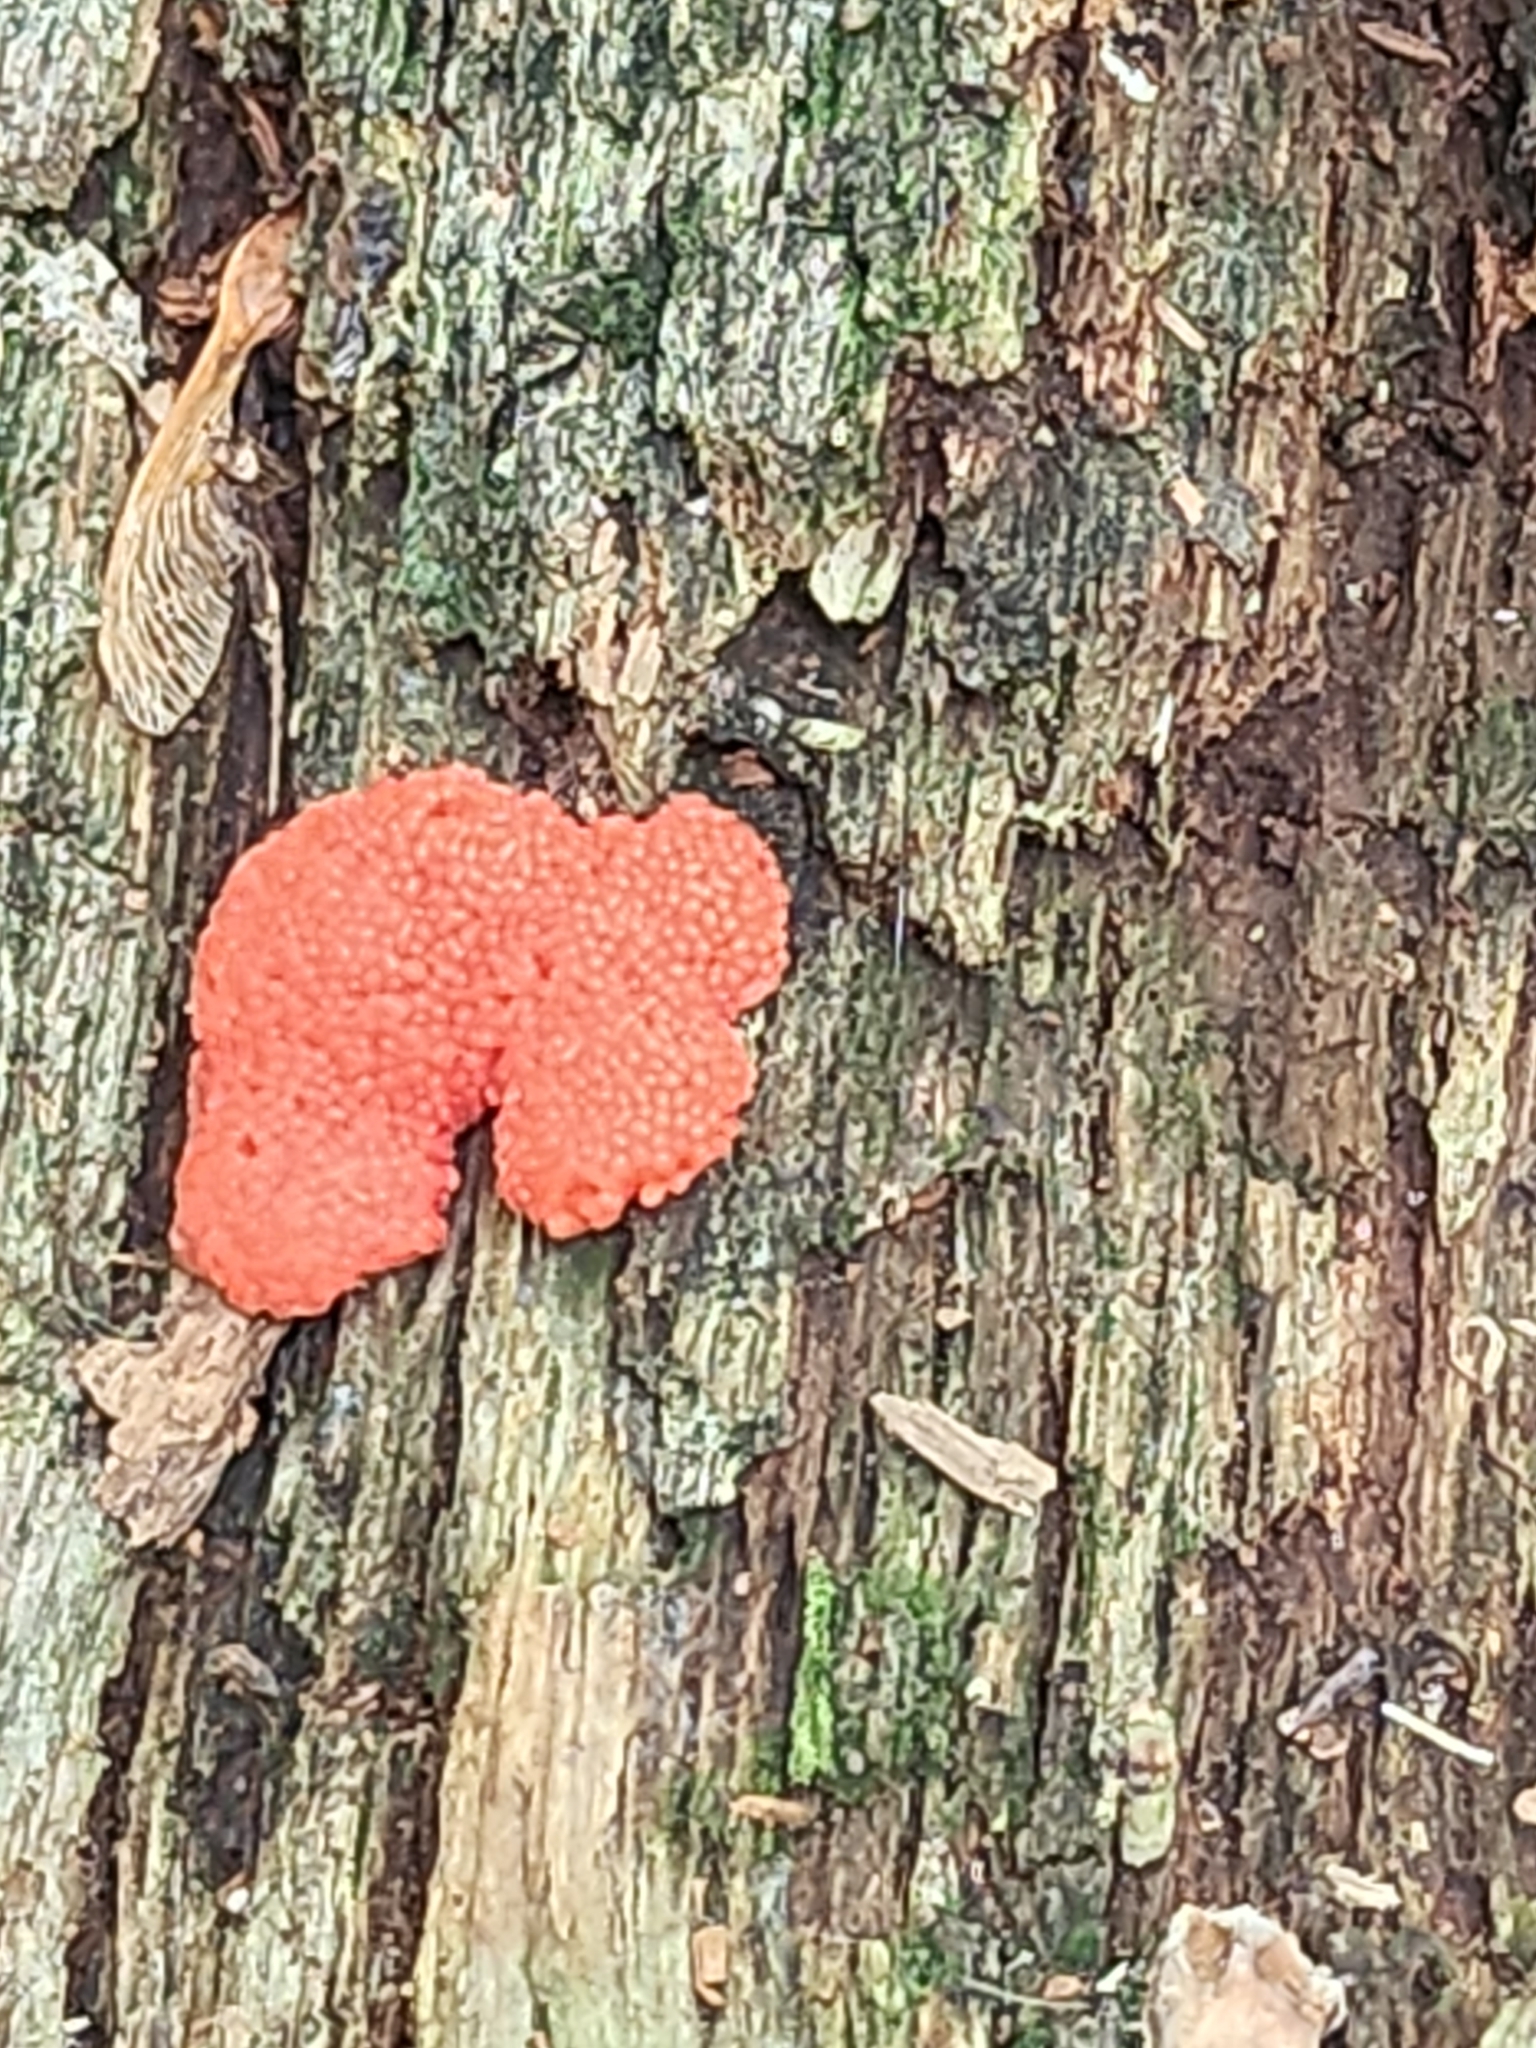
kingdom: Protozoa
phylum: Mycetozoa
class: Myxomycetes
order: Cribrariales
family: Tubiferaceae
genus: Tubifera
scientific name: Tubifera ferruginosa
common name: Red raspberry slime mold
